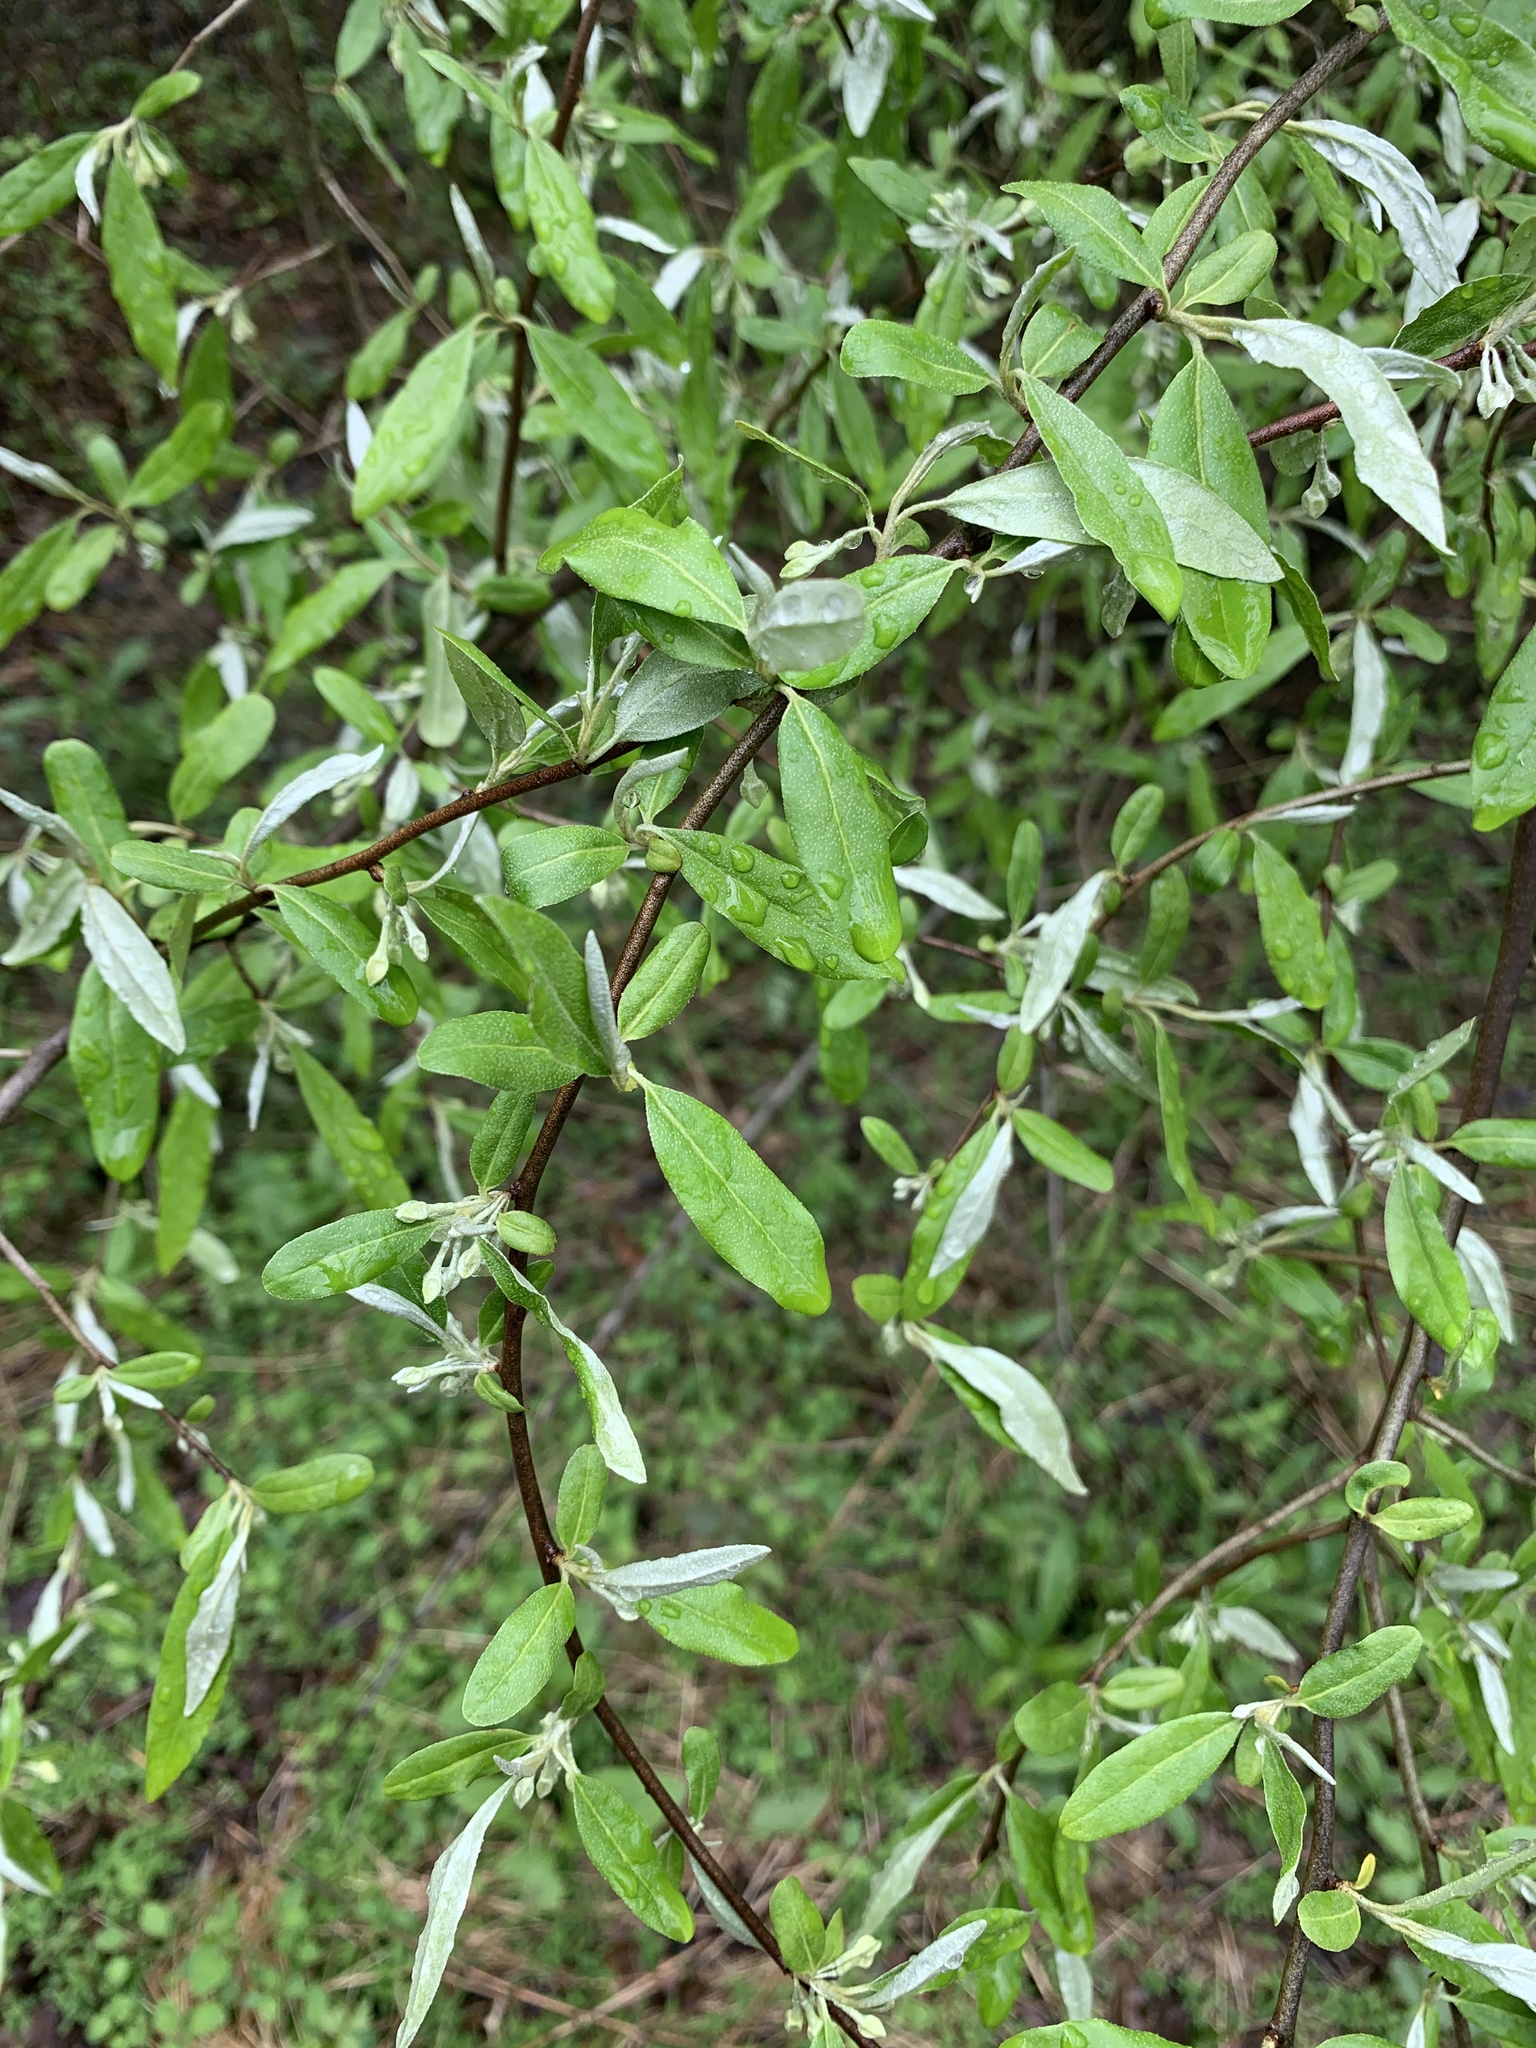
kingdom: Plantae
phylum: Tracheophyta
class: Magnoliopsida
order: Rosales
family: Elaeagnaceae
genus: Elaeagnus
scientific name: Elaeagnus umbellata
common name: Autumn olive
